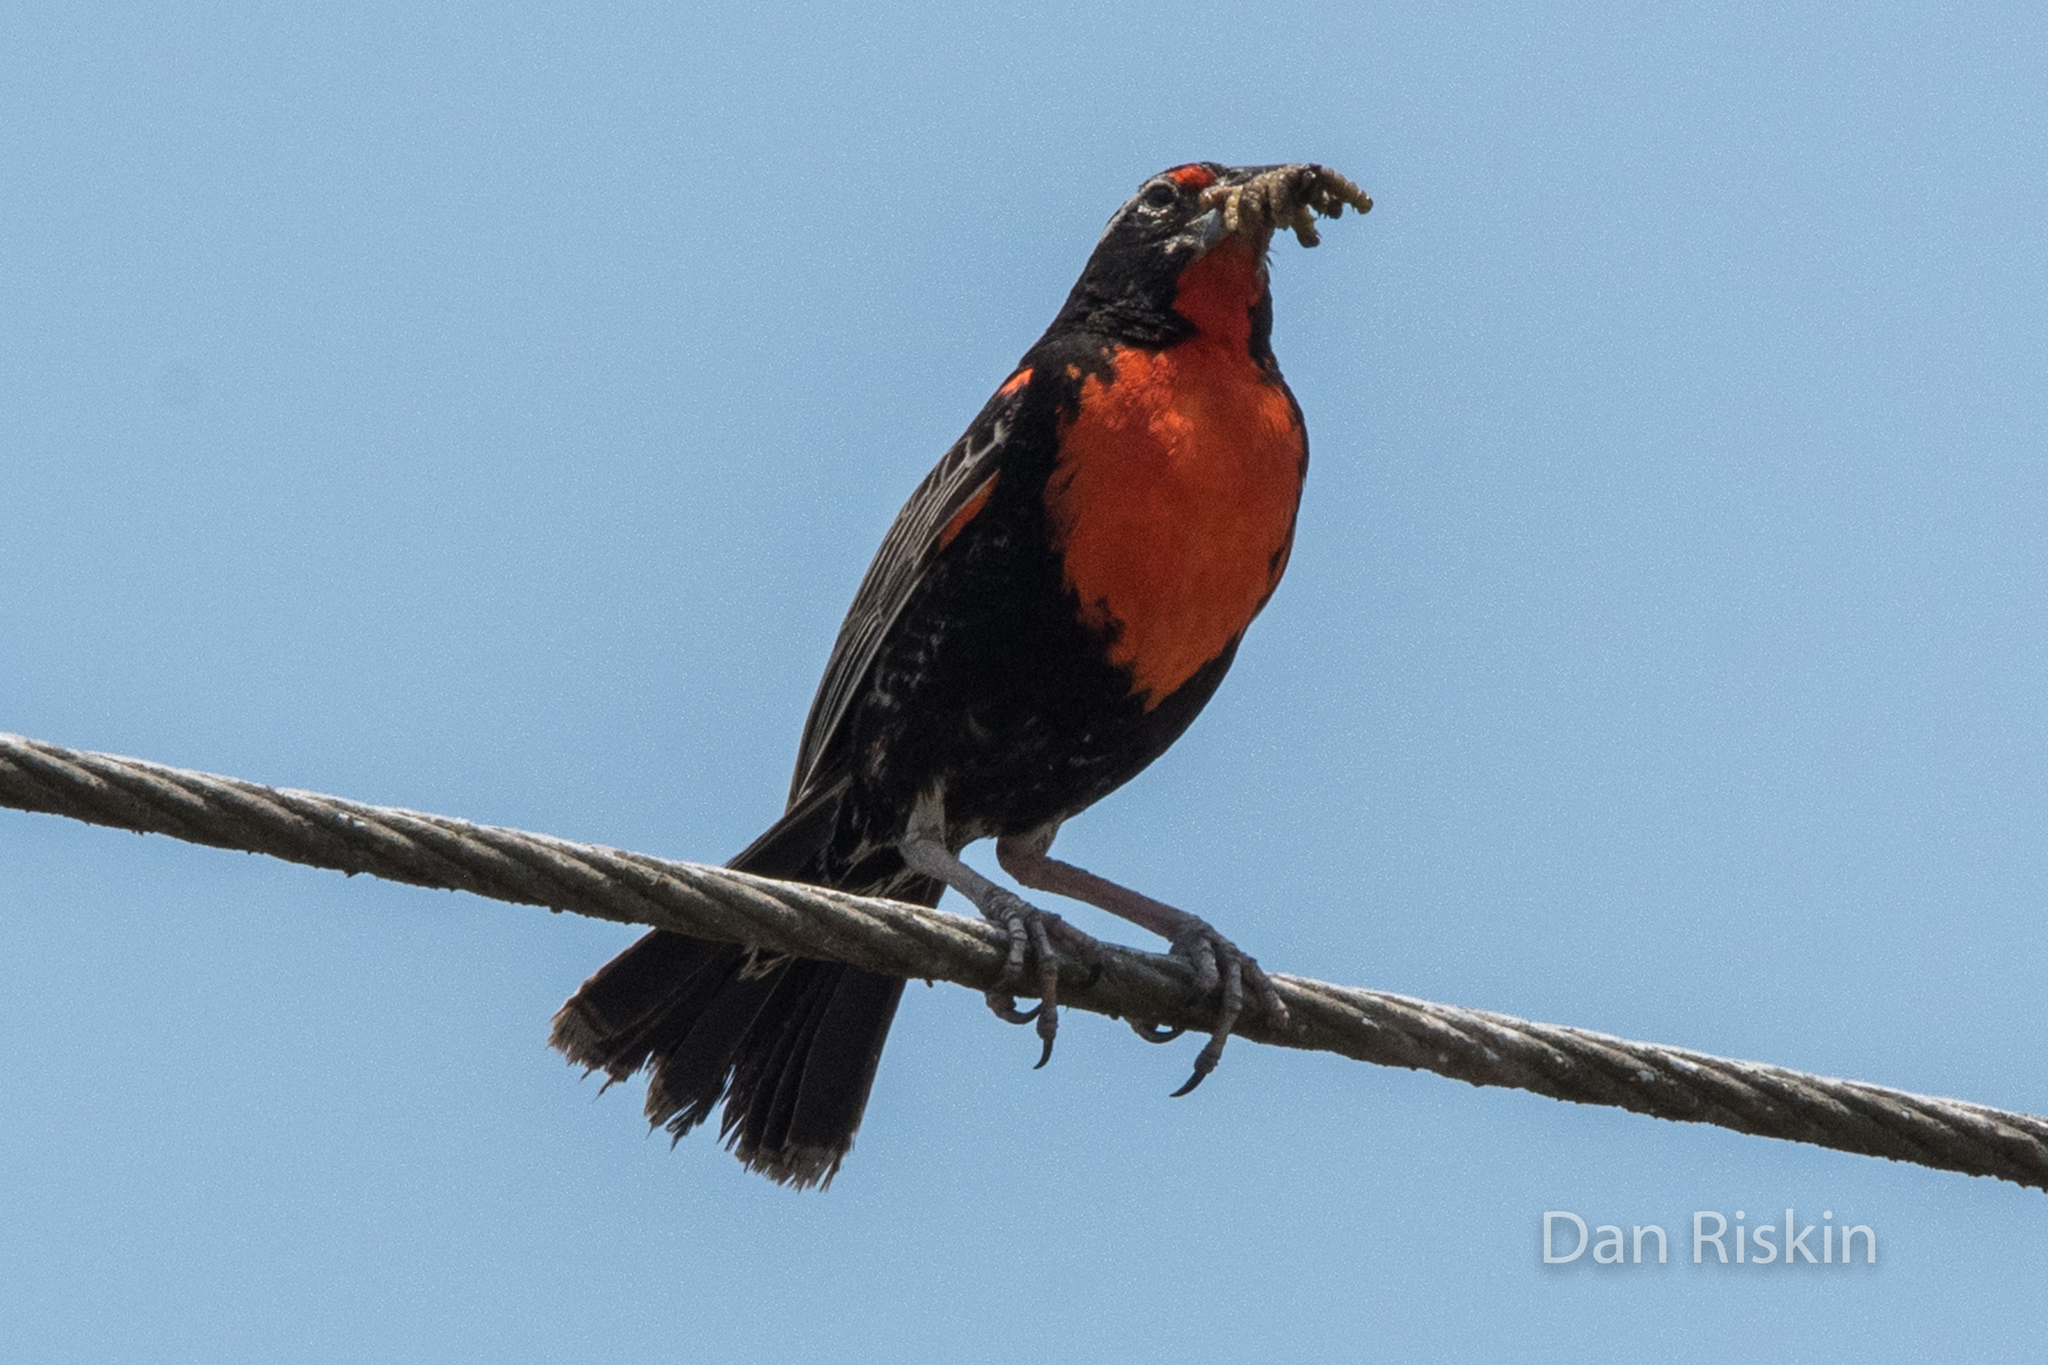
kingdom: Animalia
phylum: Chordata
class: Aves
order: Passeriformes
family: Icteridae
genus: Sturnella
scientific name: Sturnella bellicosa
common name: Peruvian meadowlark
